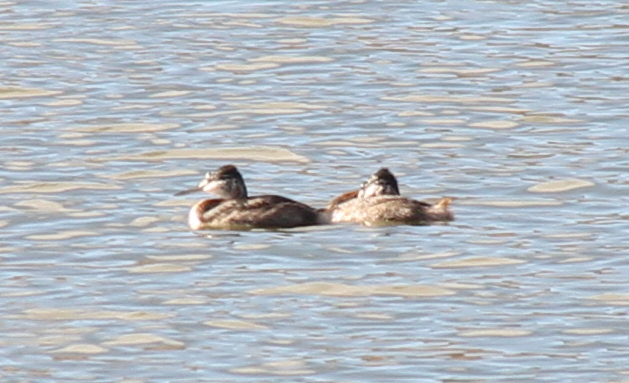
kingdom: Animalia
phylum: Chordata
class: Aves
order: Podicipediformes
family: Podicipedidae
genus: Podiceps
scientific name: Podiceps major
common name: Great grebe
